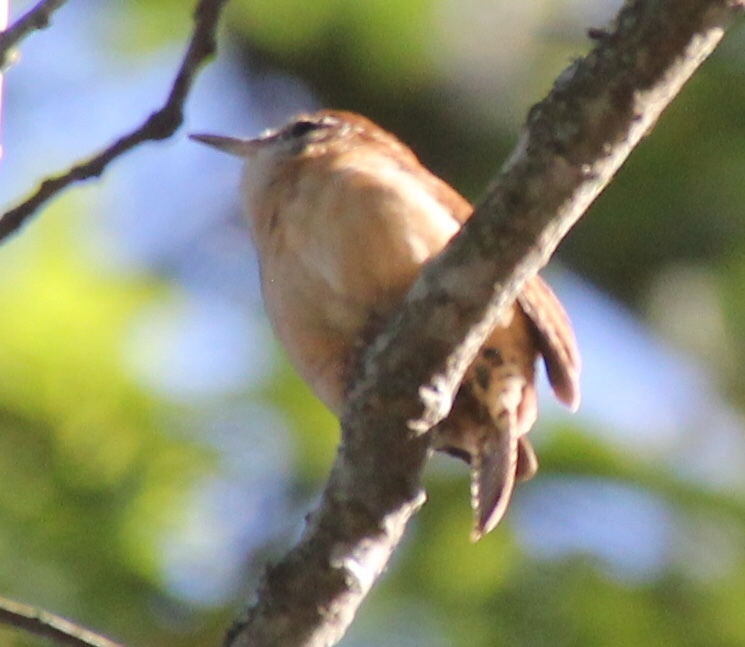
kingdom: Animalia
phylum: Chordata
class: Aves
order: Passeriformes
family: Troglodytidae
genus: Thryothorus
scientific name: Thryothorus ludovicianus
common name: Carolina wren
